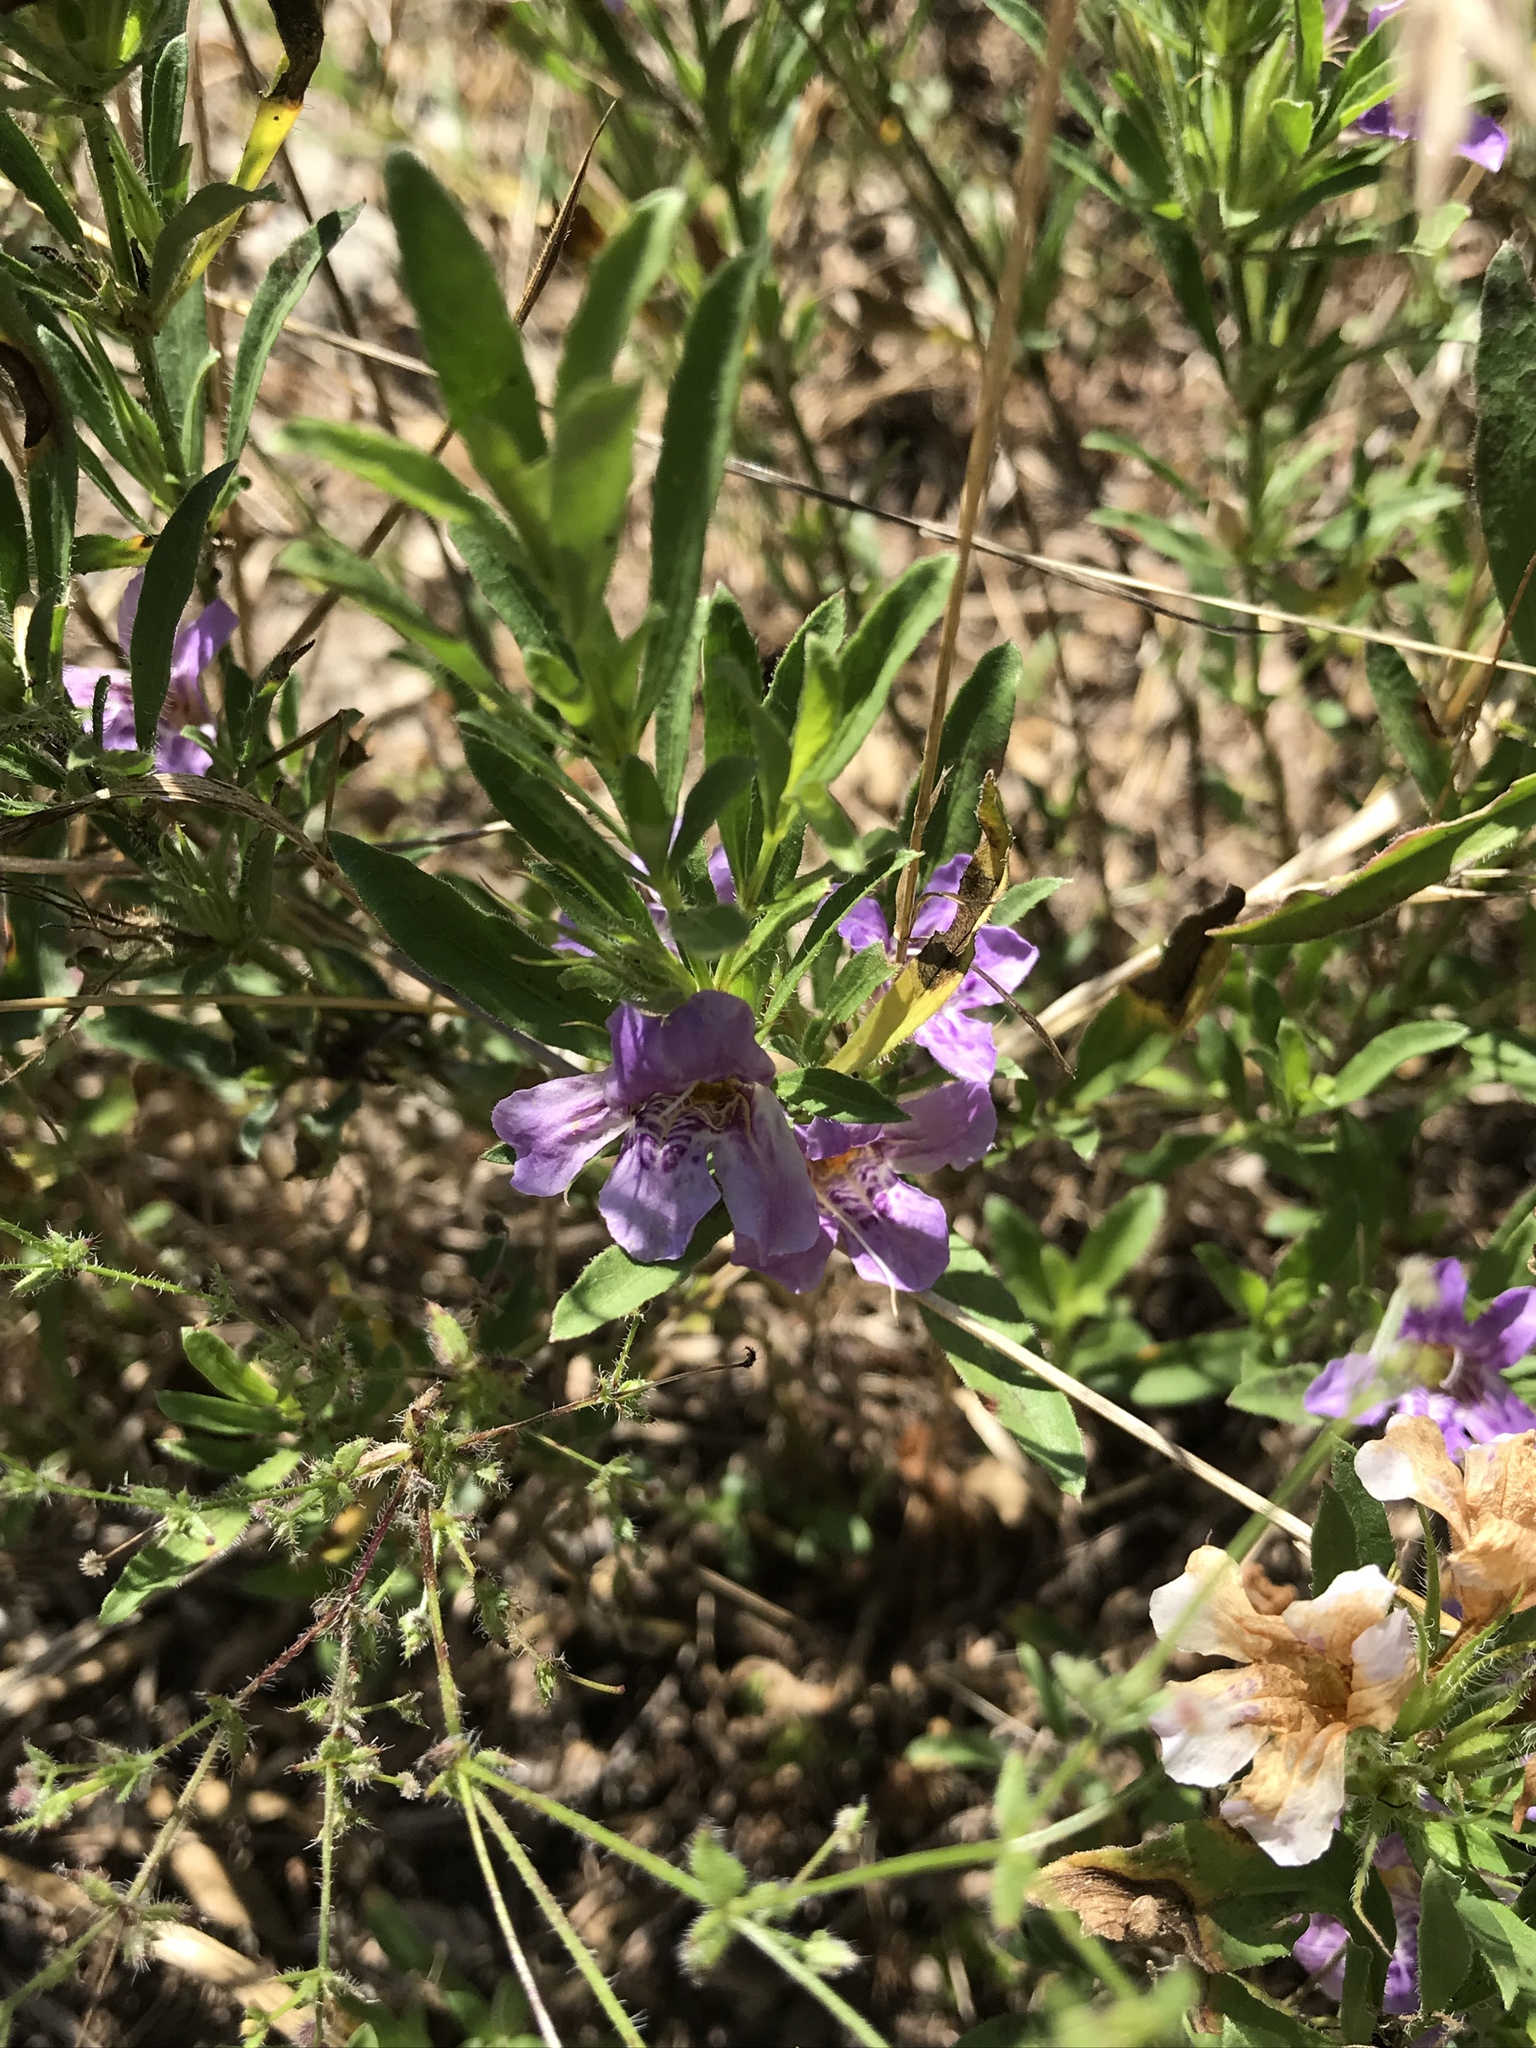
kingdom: Plantae
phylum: Tracheophyta
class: Magnoliopsida
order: Lamiales
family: Acanthaceae
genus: Dyschoriste
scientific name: Dyschoriste linearis
